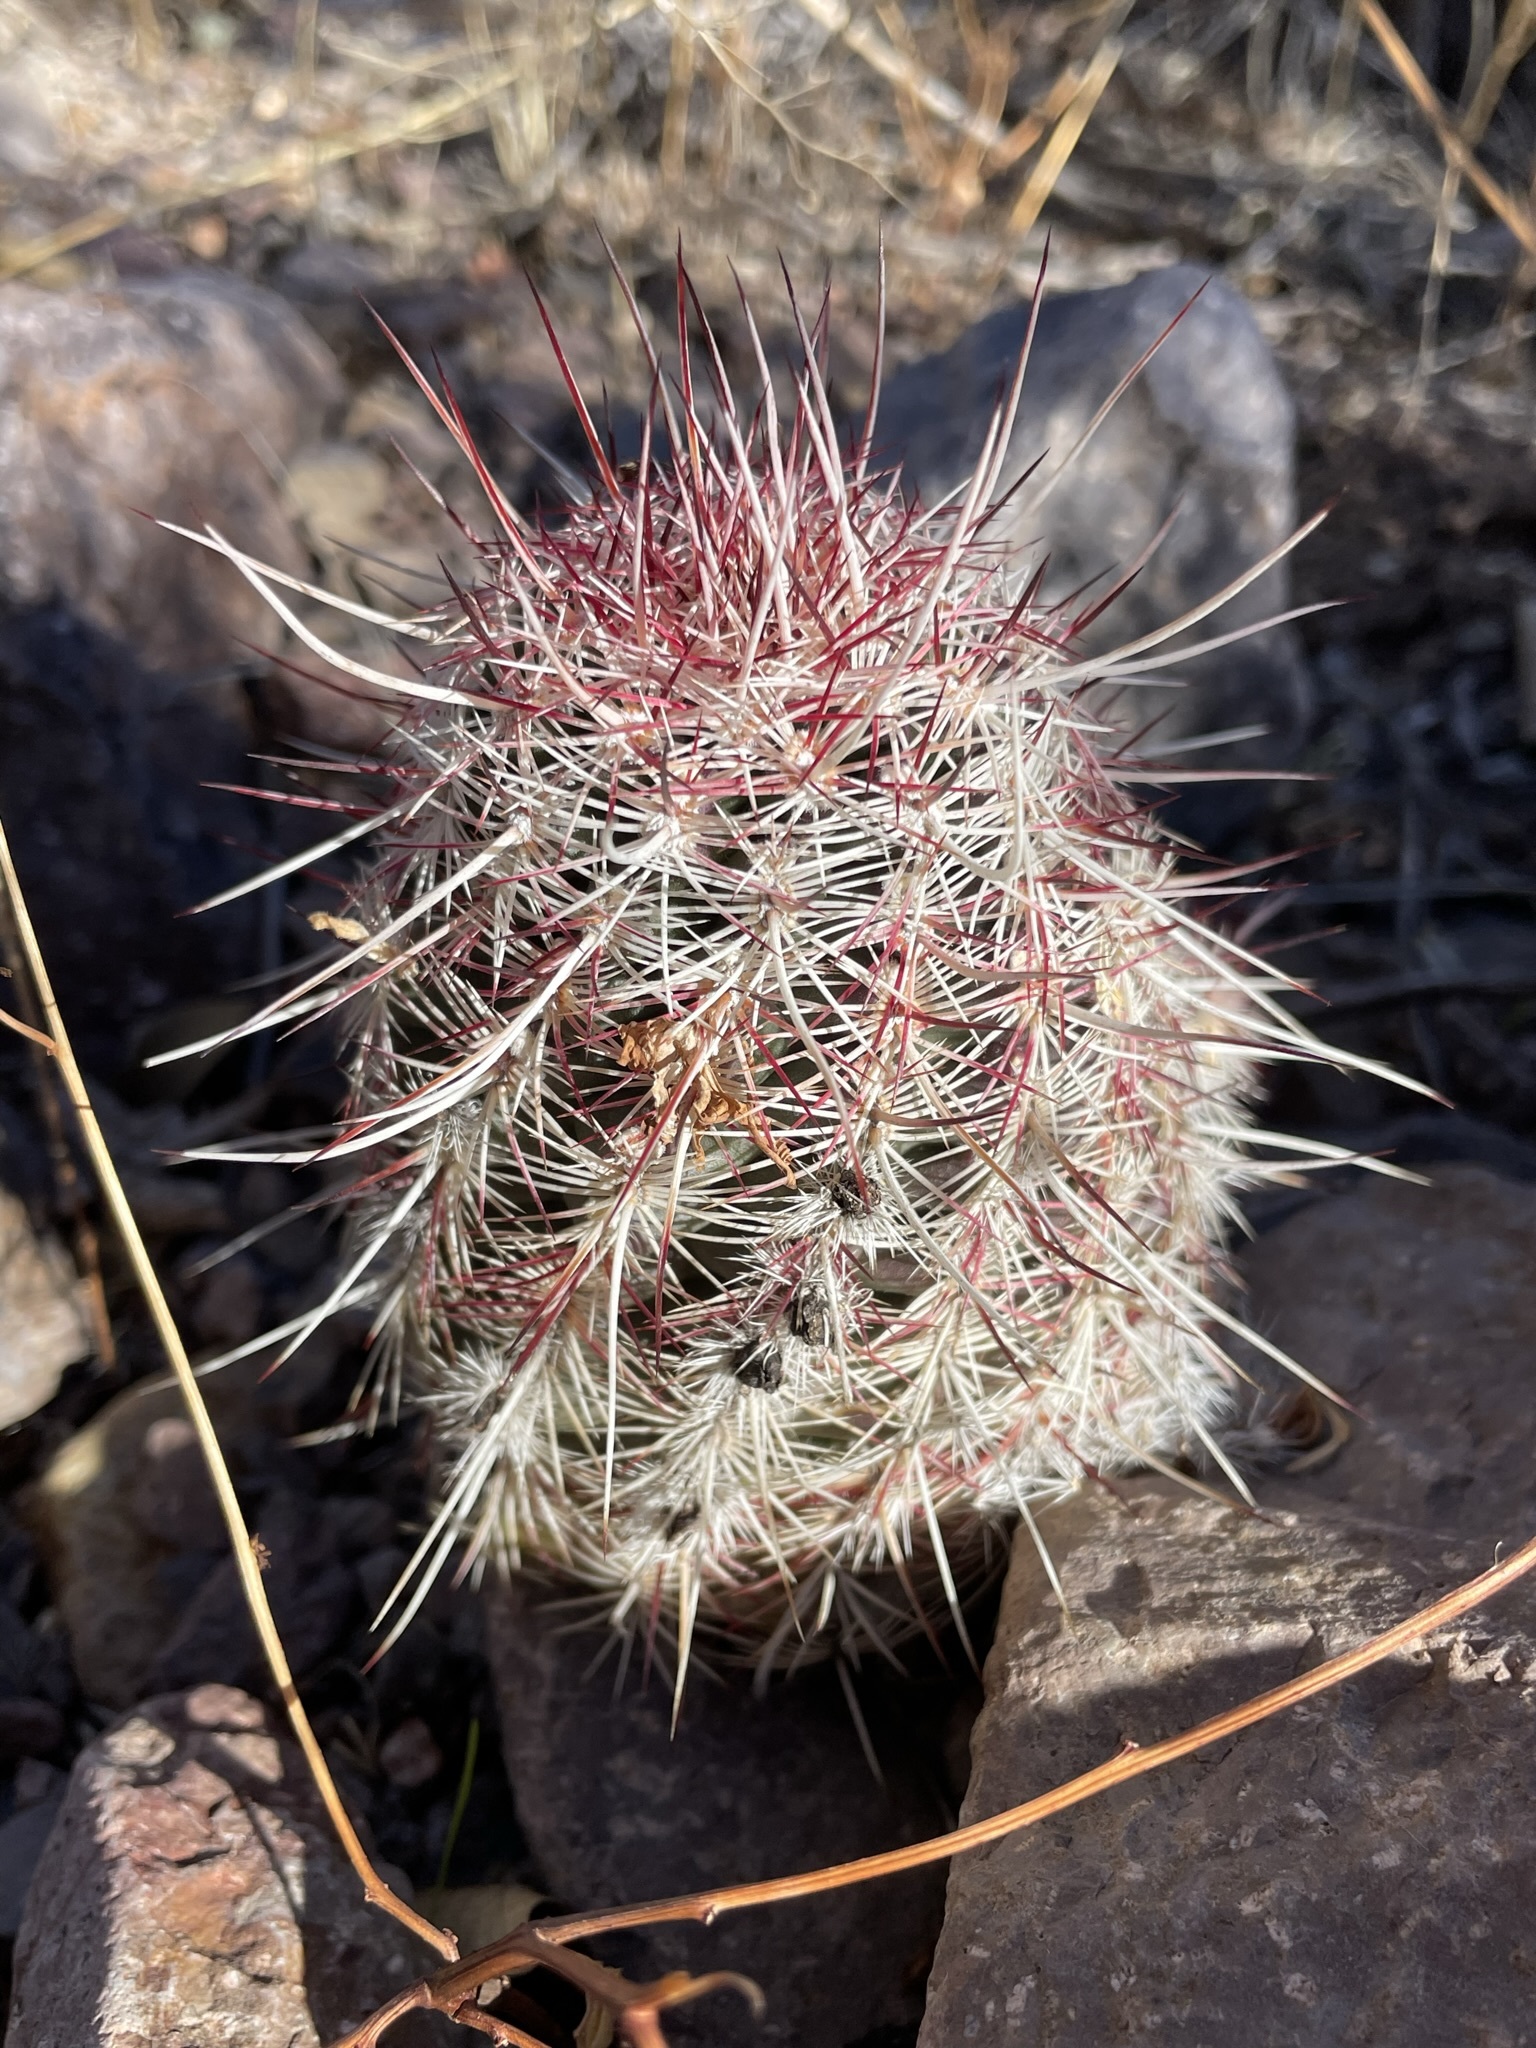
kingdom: Plantae
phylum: Tracheophyta
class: Magnoliopsida
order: Caryophyllales
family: Cactaceae
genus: Echinocereus
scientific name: Echinocereus viridiflorus
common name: Nylon hedgehog cactus
